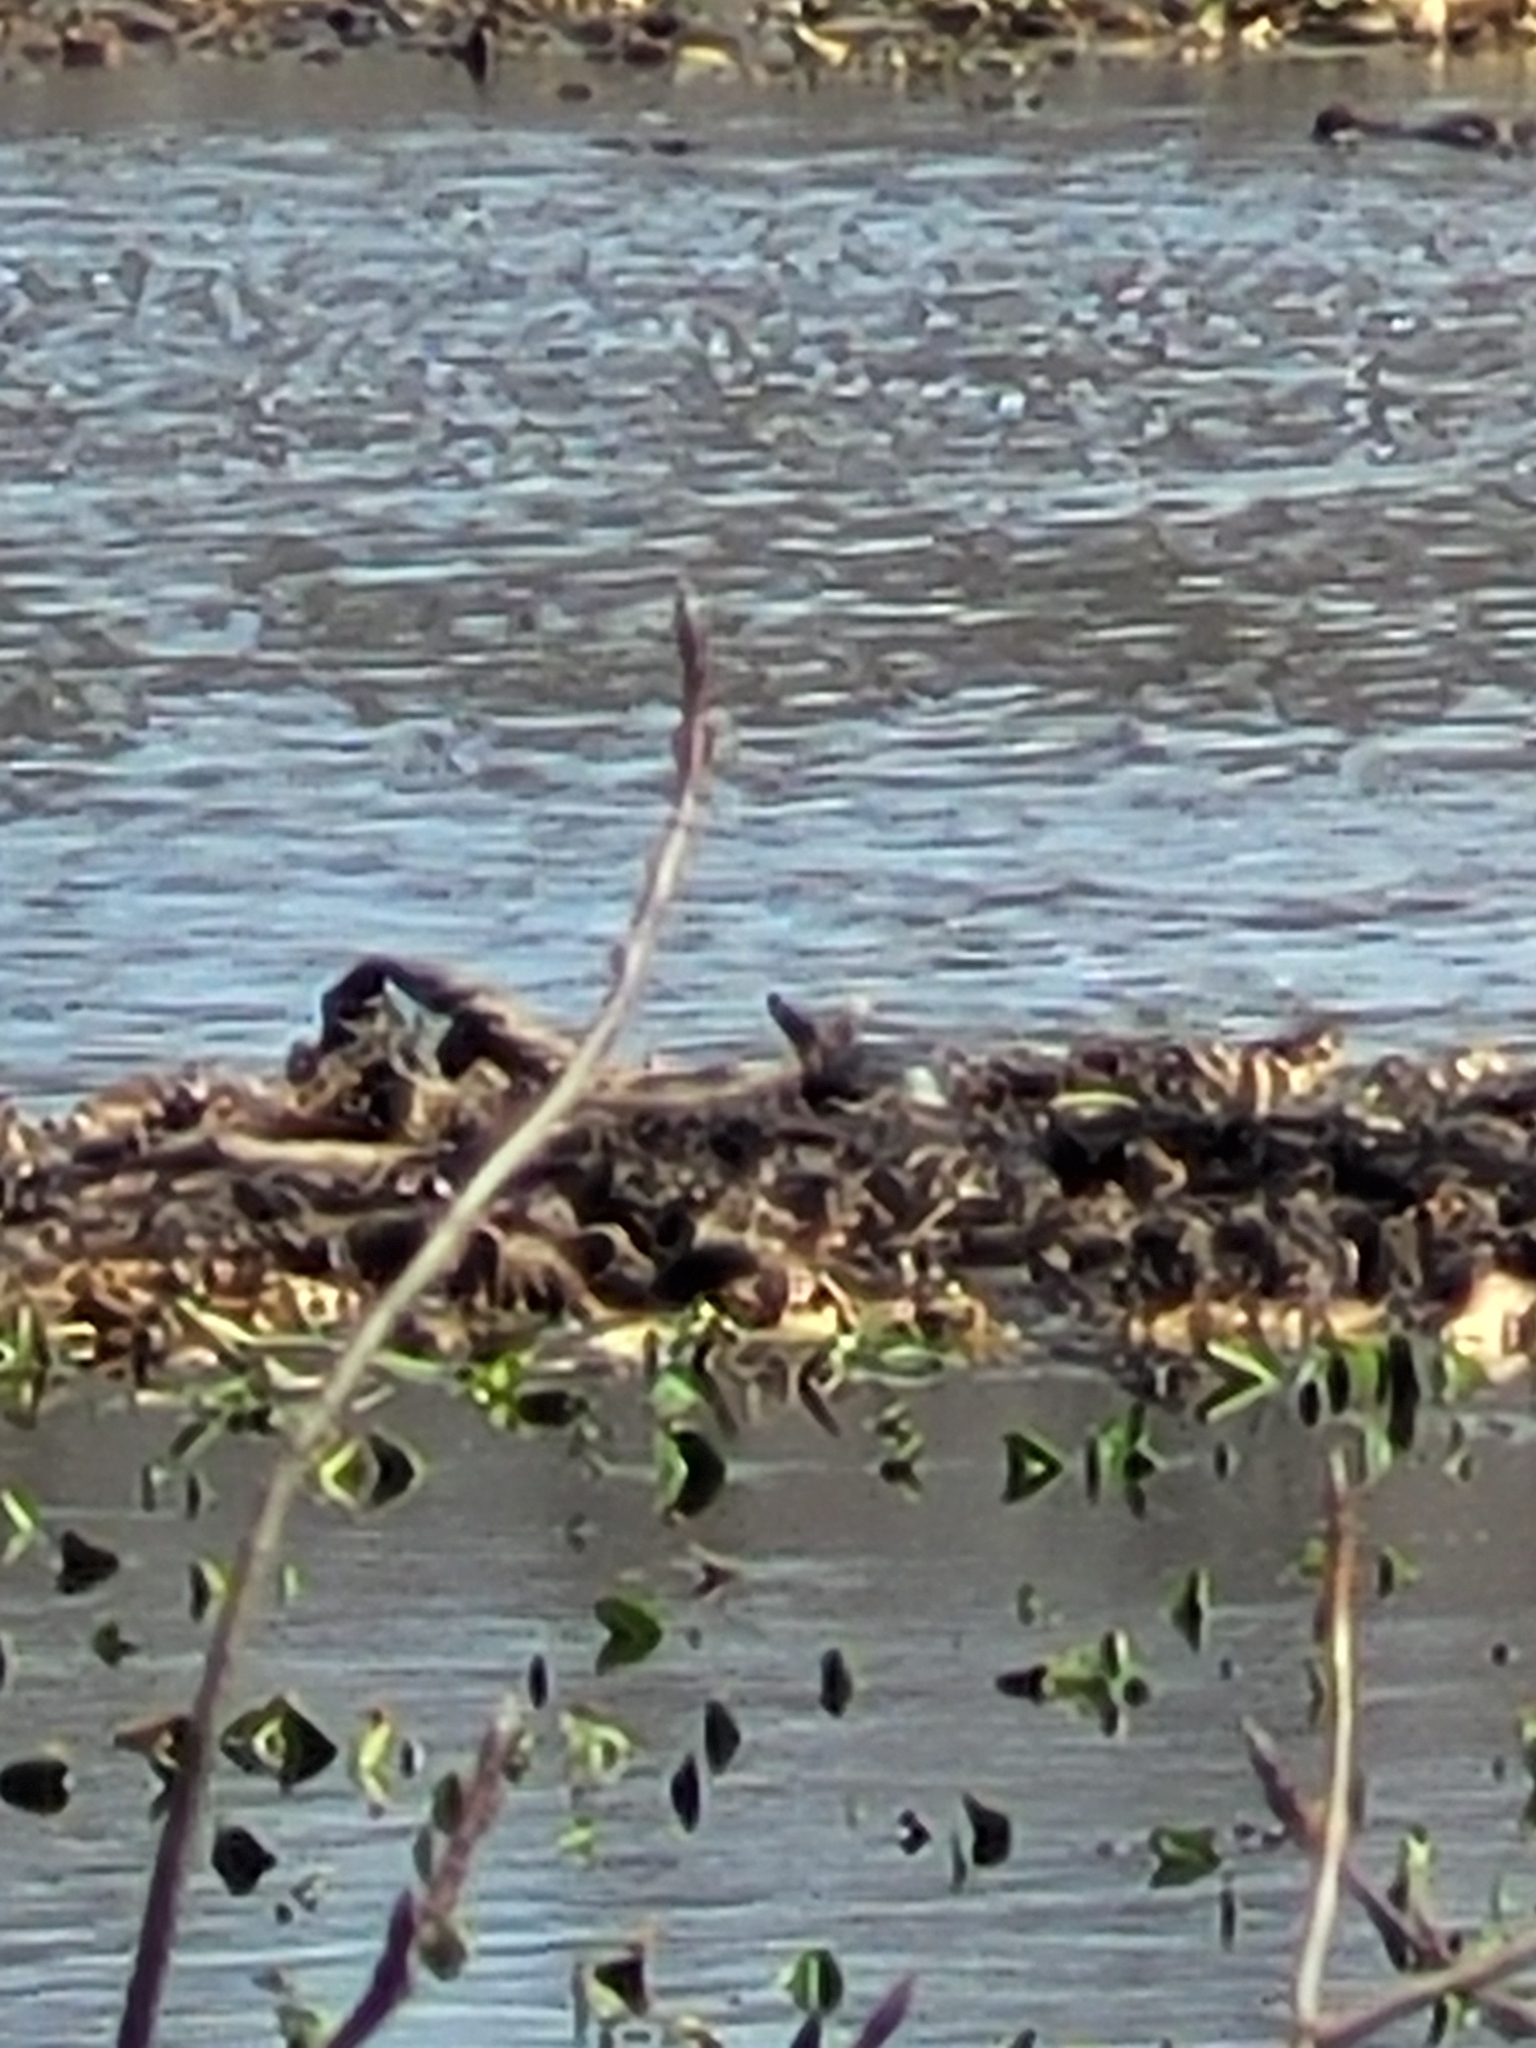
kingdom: Animalia
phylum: Chordata
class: Testudines
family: Emydidae
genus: Emys
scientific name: Emys blandingii
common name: Blanding's turtle
